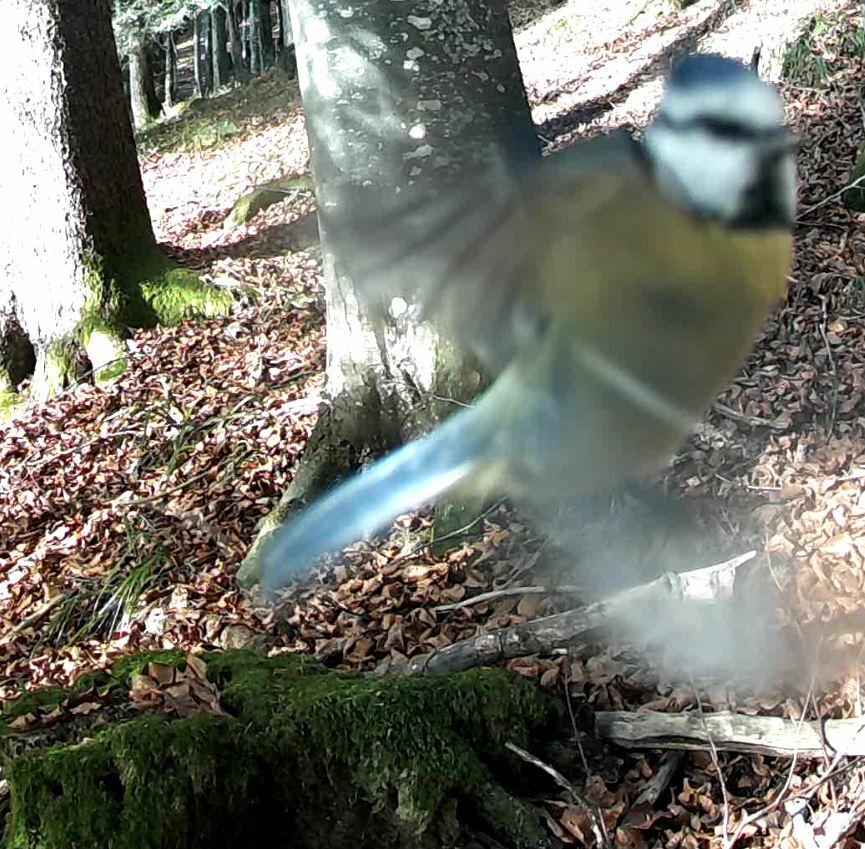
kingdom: Animalia
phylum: Chordata
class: Aves
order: Passeriformes
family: Paridae
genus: Cyanistes
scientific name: Cyanistes caeruleus
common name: Eurasian blue tit
